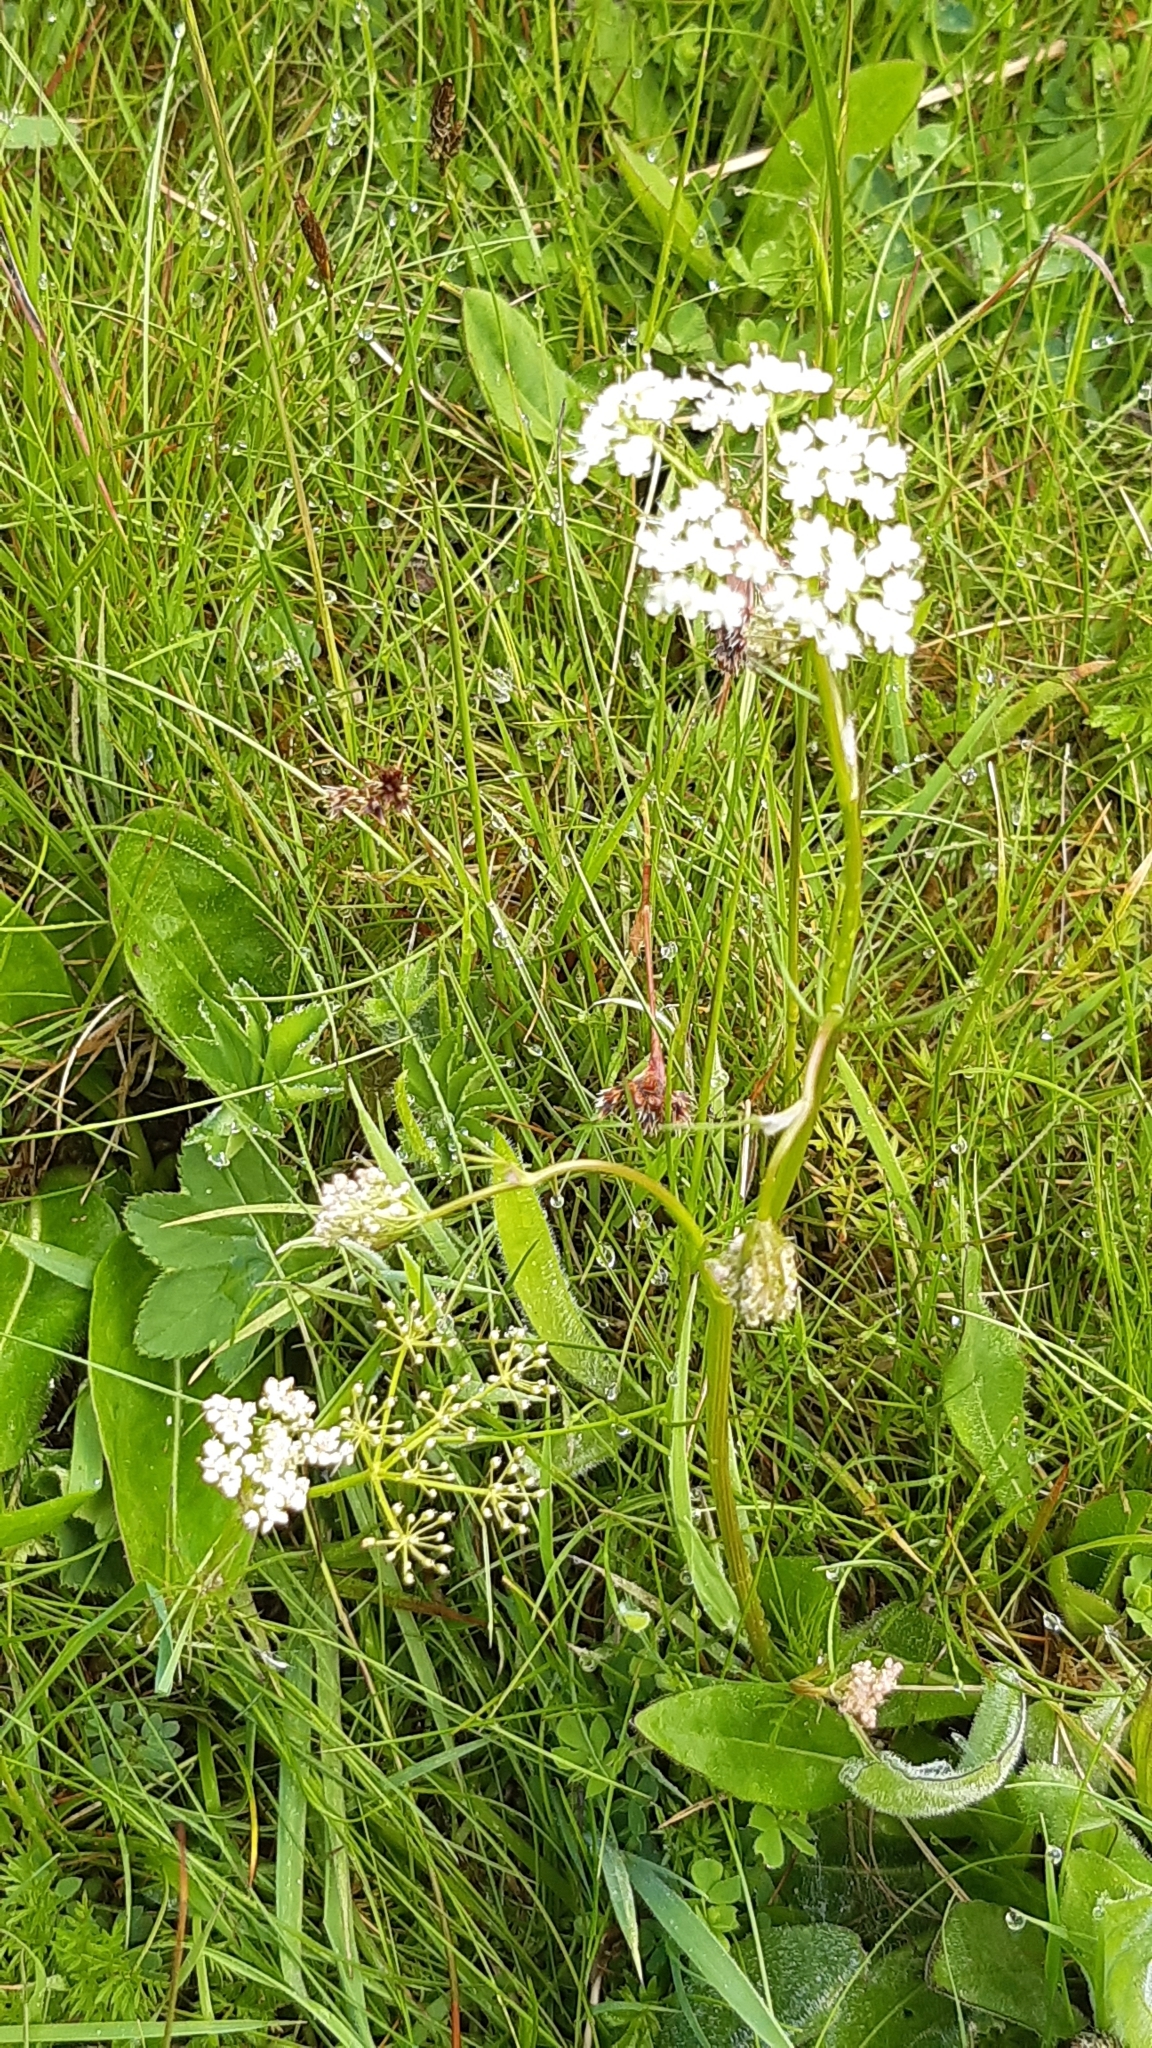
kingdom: Plantae
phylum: Tracheophyta
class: Magnoliopsida
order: Apiales
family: Apiaceae
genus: Conopodium
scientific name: Conopodium majus
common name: Pignut
